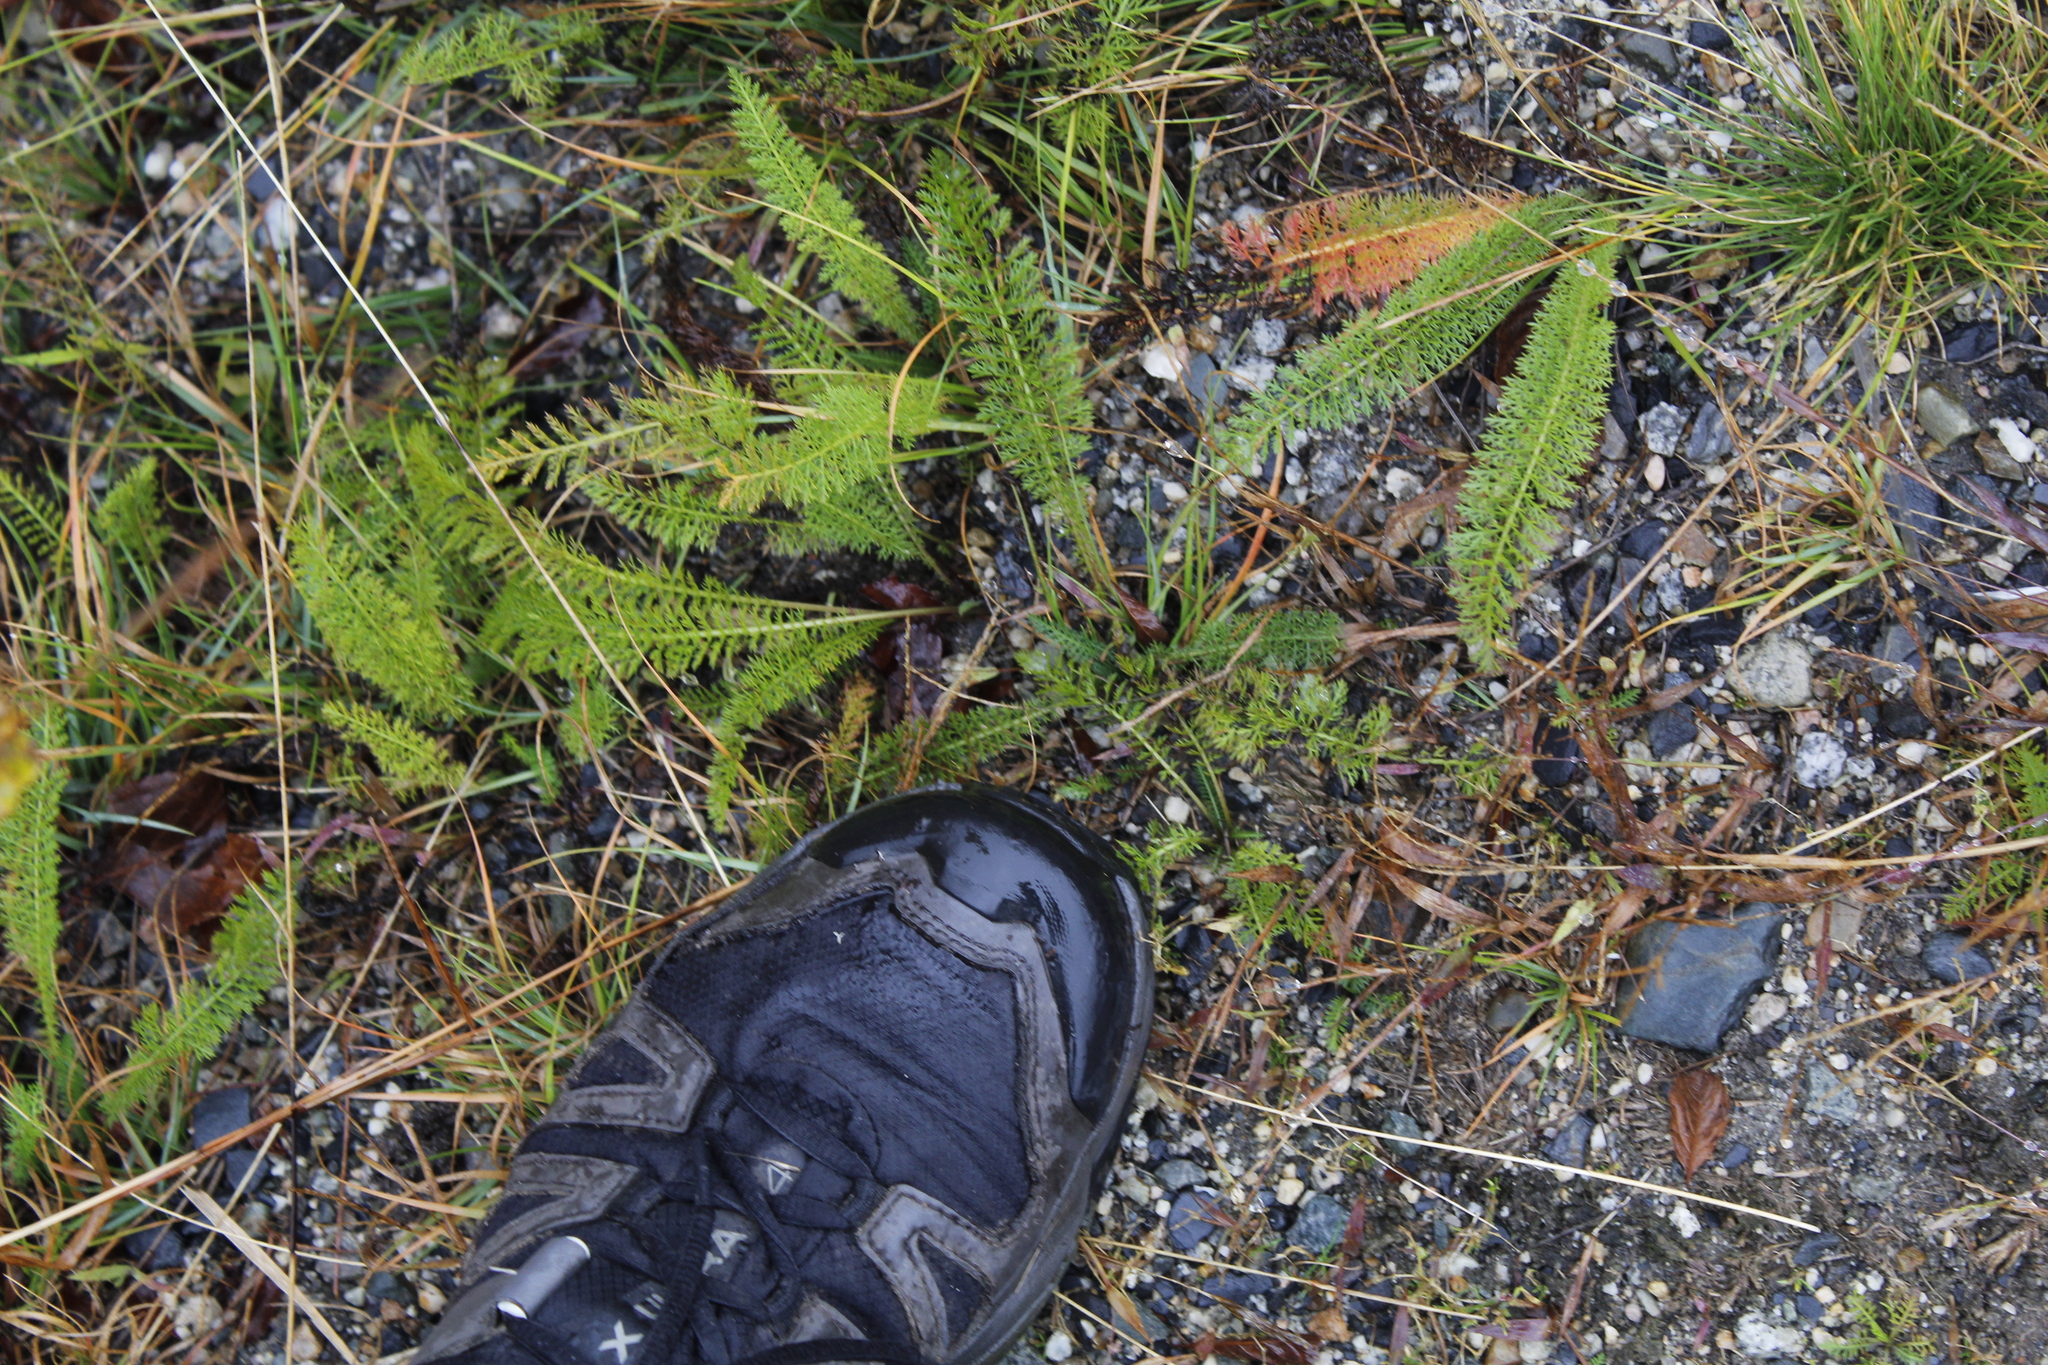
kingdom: Plantae
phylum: Tracheophyta
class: Magnoliopsida
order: Asterales
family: Asteraceae
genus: Achillea
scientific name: Achillea millefolium
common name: Yarrow
